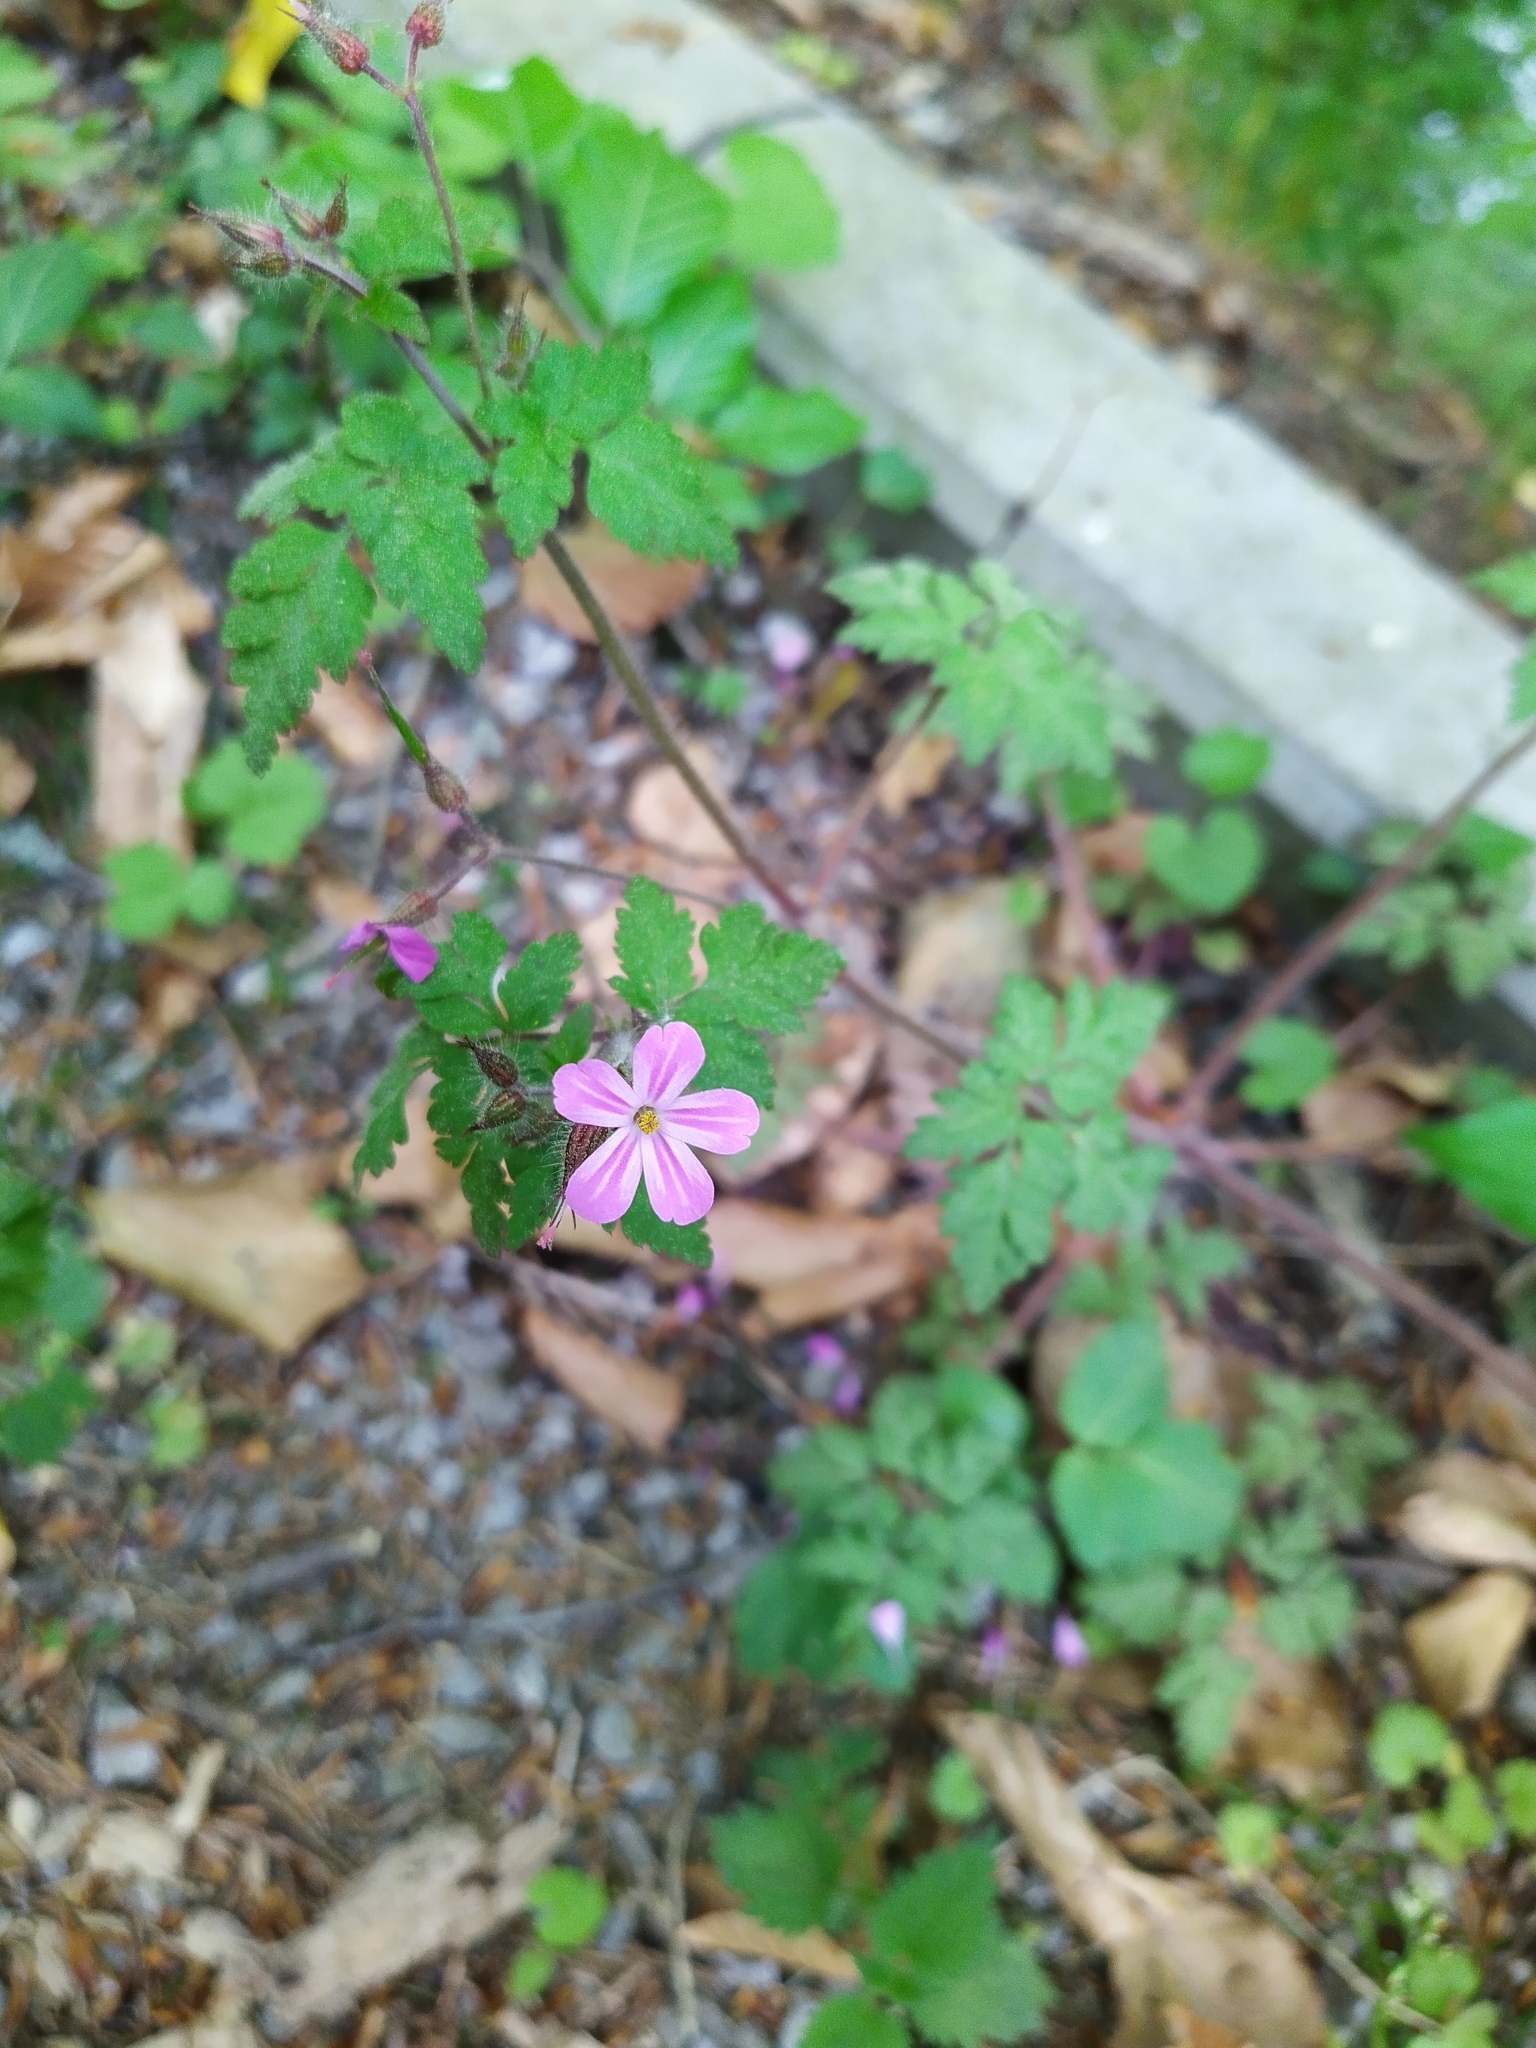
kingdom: Plantae
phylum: Tracheophyta
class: Magnoliopsida
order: Geraniales
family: Geraniaceae
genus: Geranium
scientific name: Geranium robertianum
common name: Herb-robert
